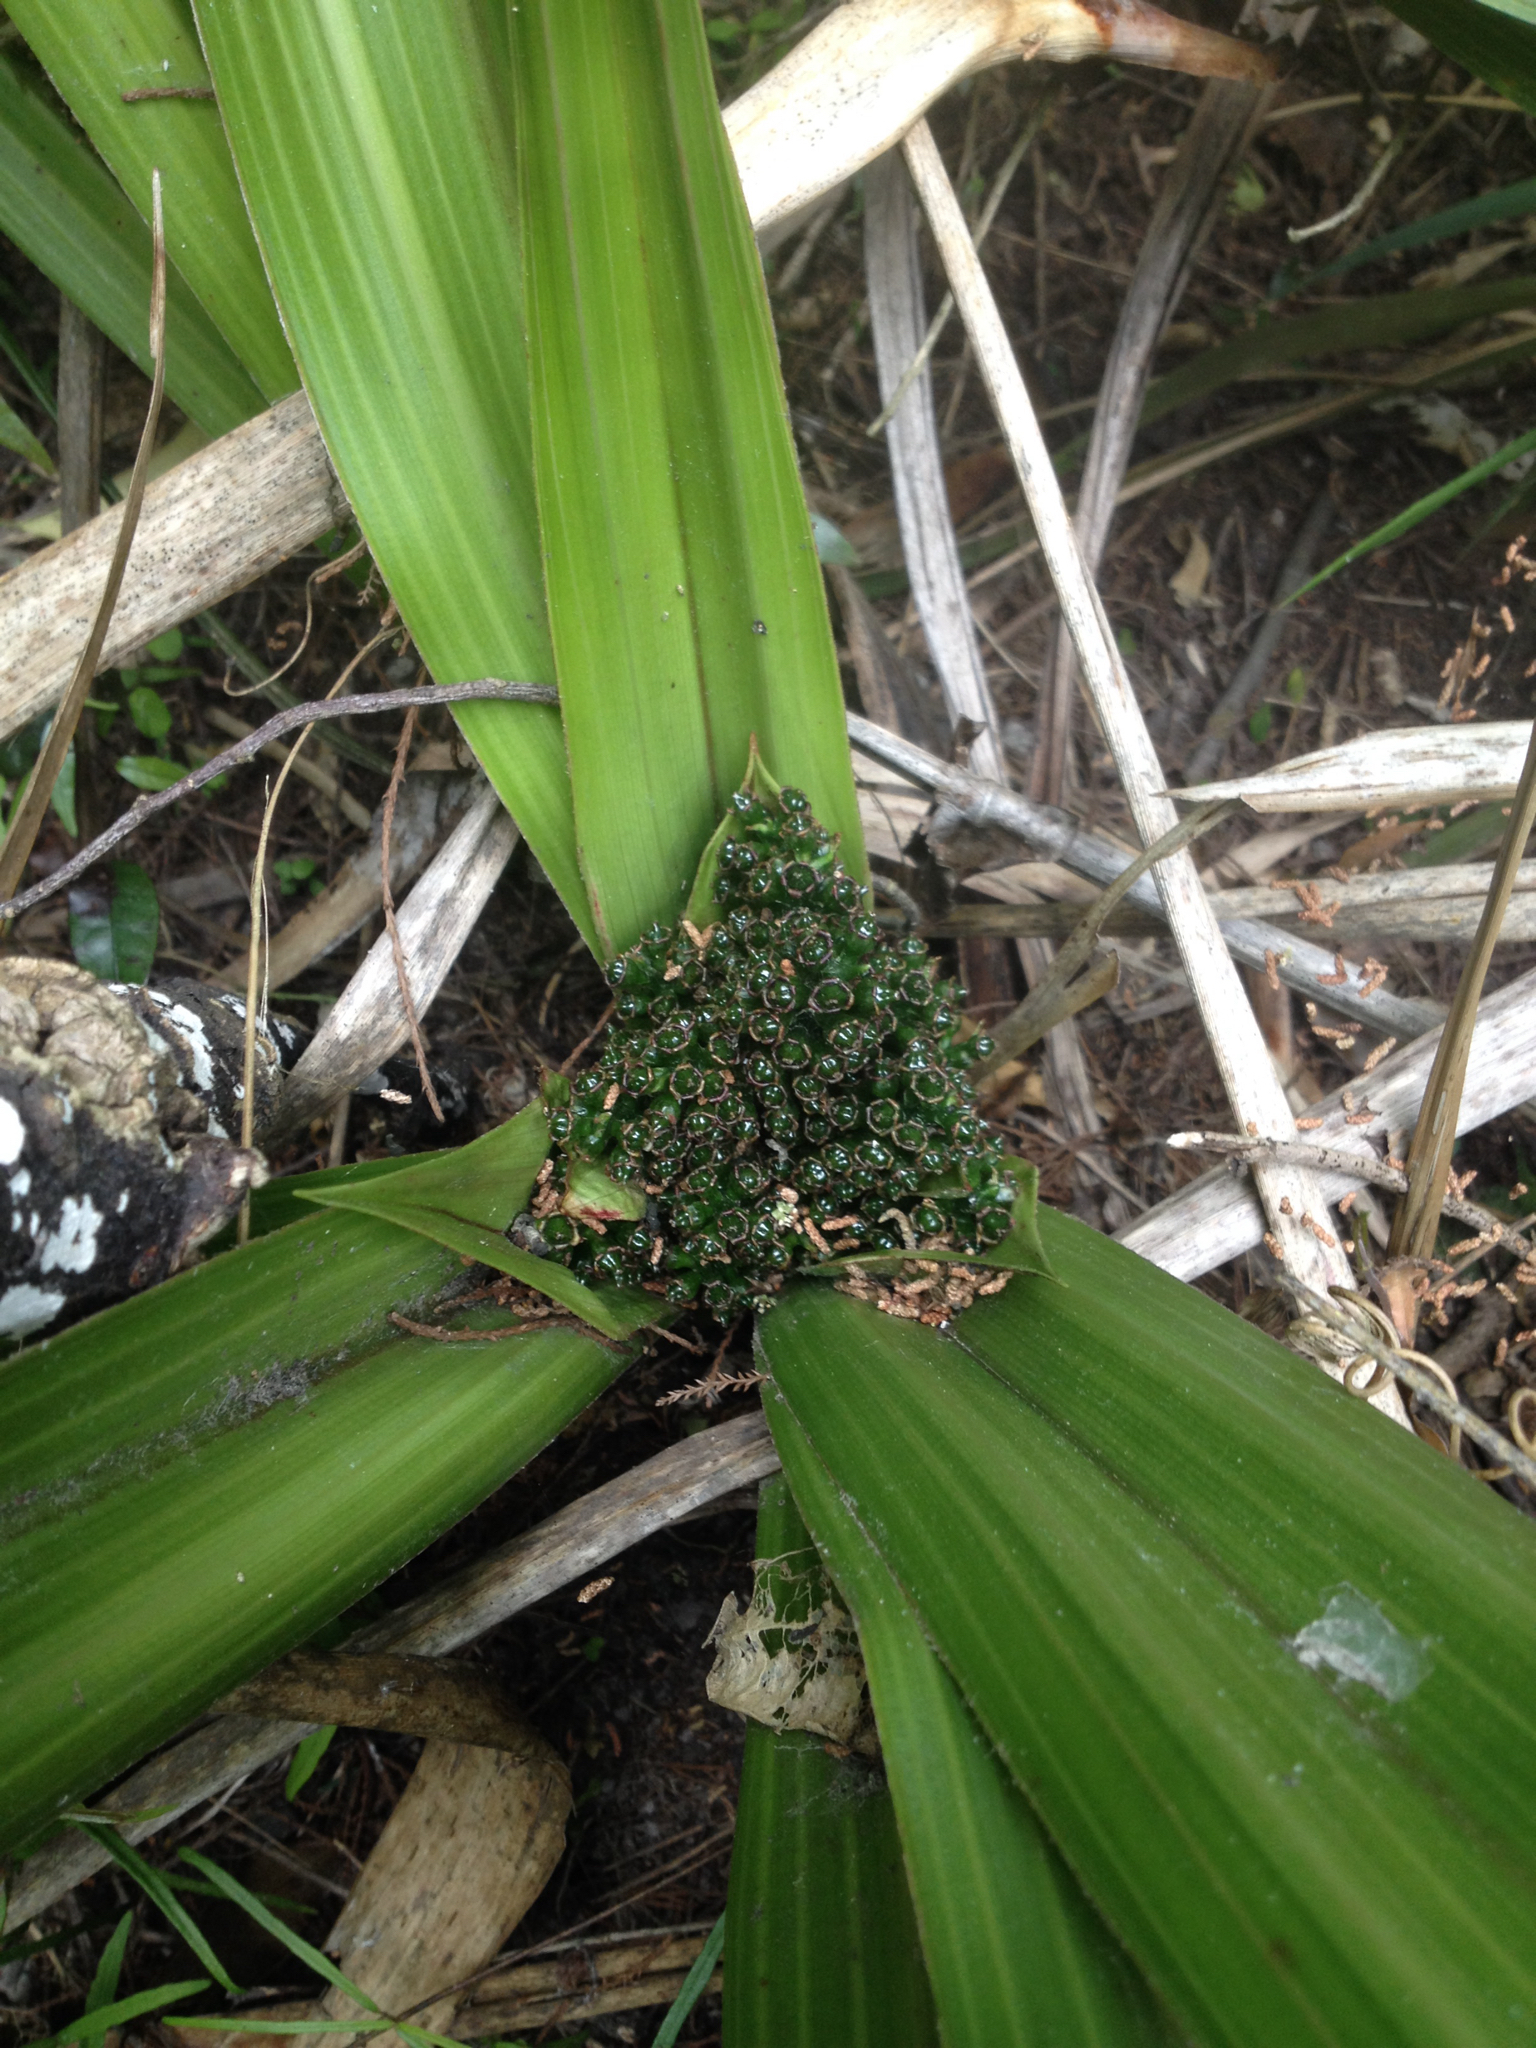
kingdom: Plantae
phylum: Tracheophyta
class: Liliopsida
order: Asparagales
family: Asteliaceae
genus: Astelia
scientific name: Astelia fragrans
